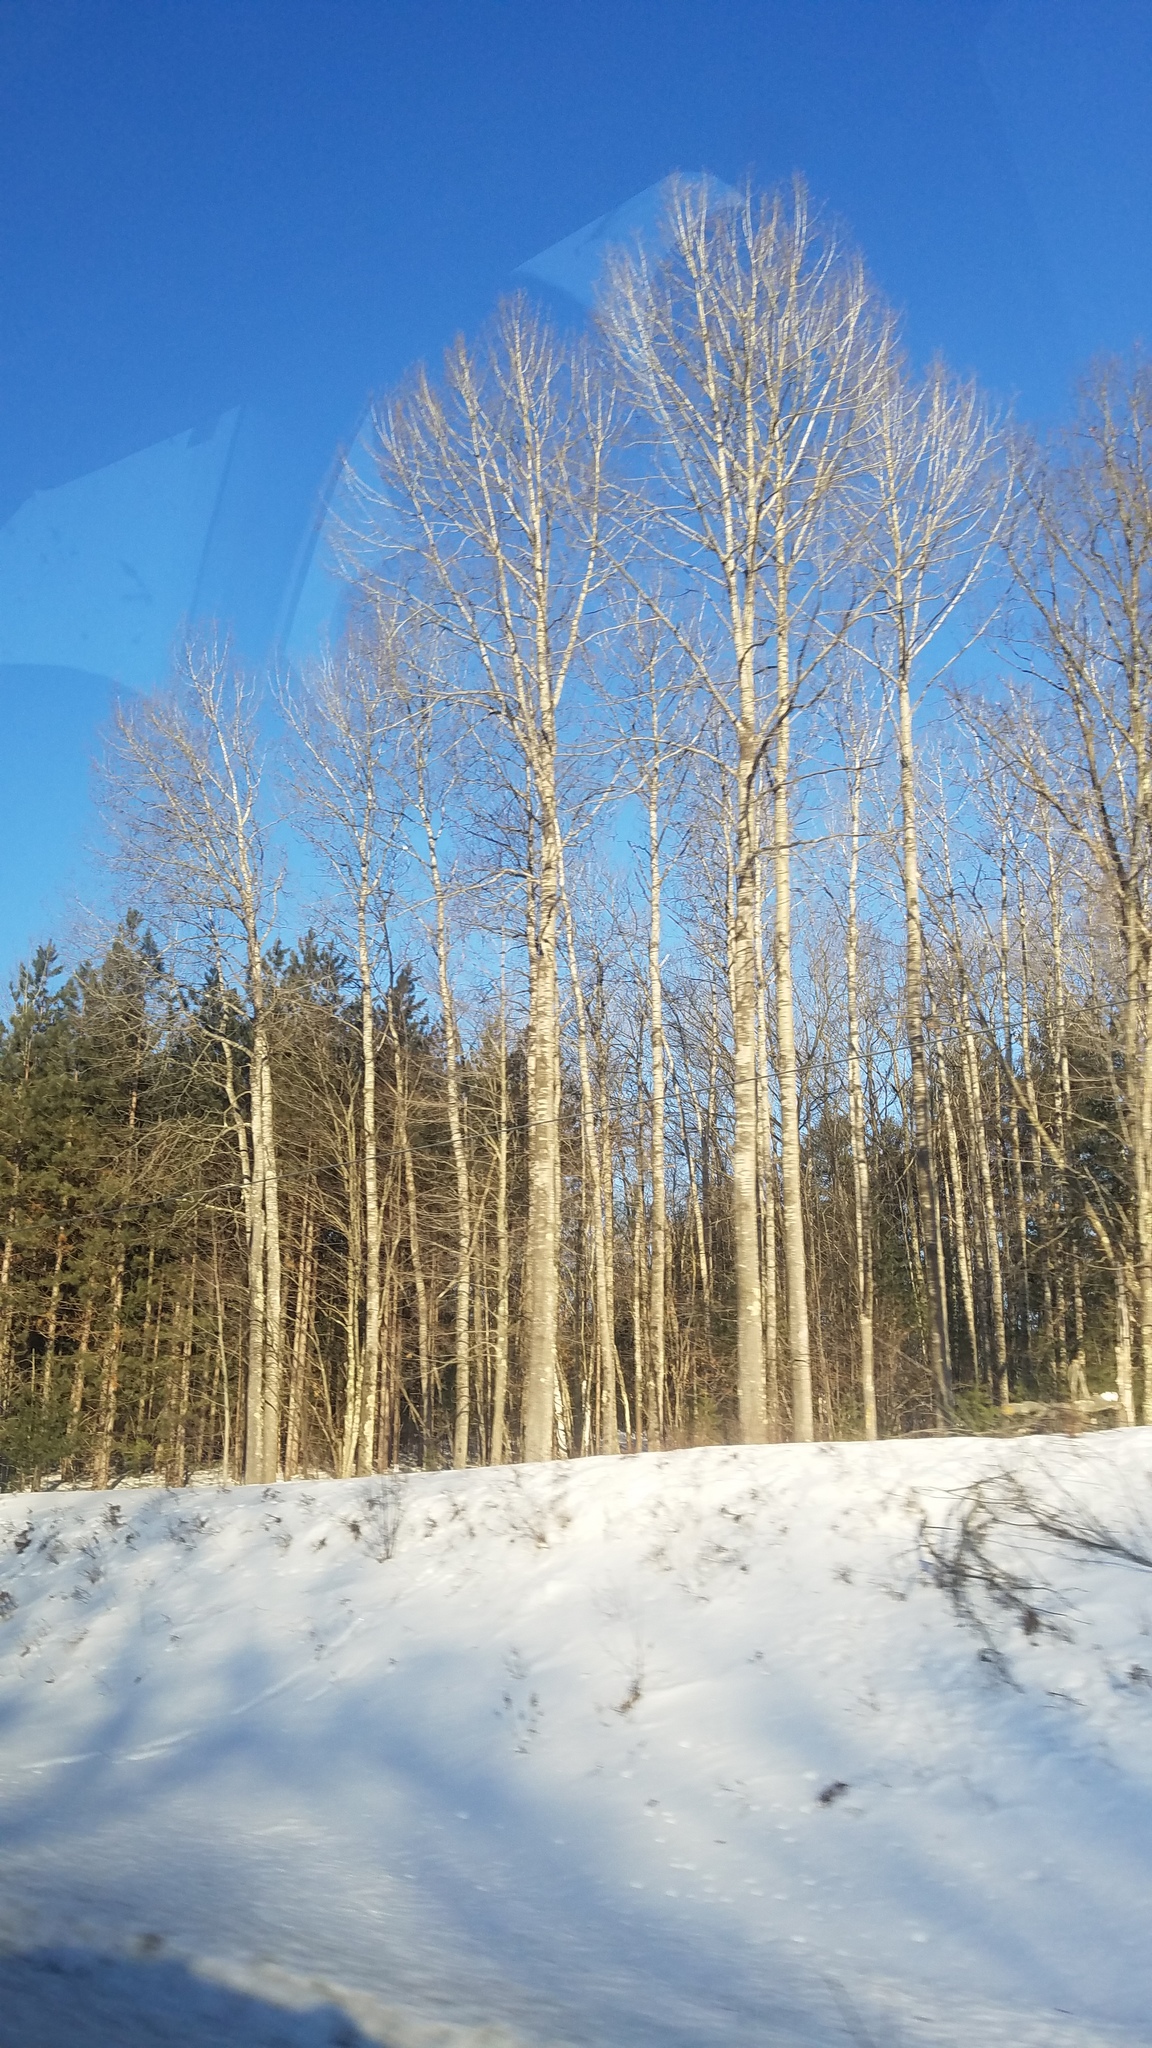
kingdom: Plantae
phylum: Tracheophyta
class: Magnoliopsida
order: Malpighiales
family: Salicaceae
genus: Populus
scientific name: Populus tremuloides
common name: Quaking aspen
